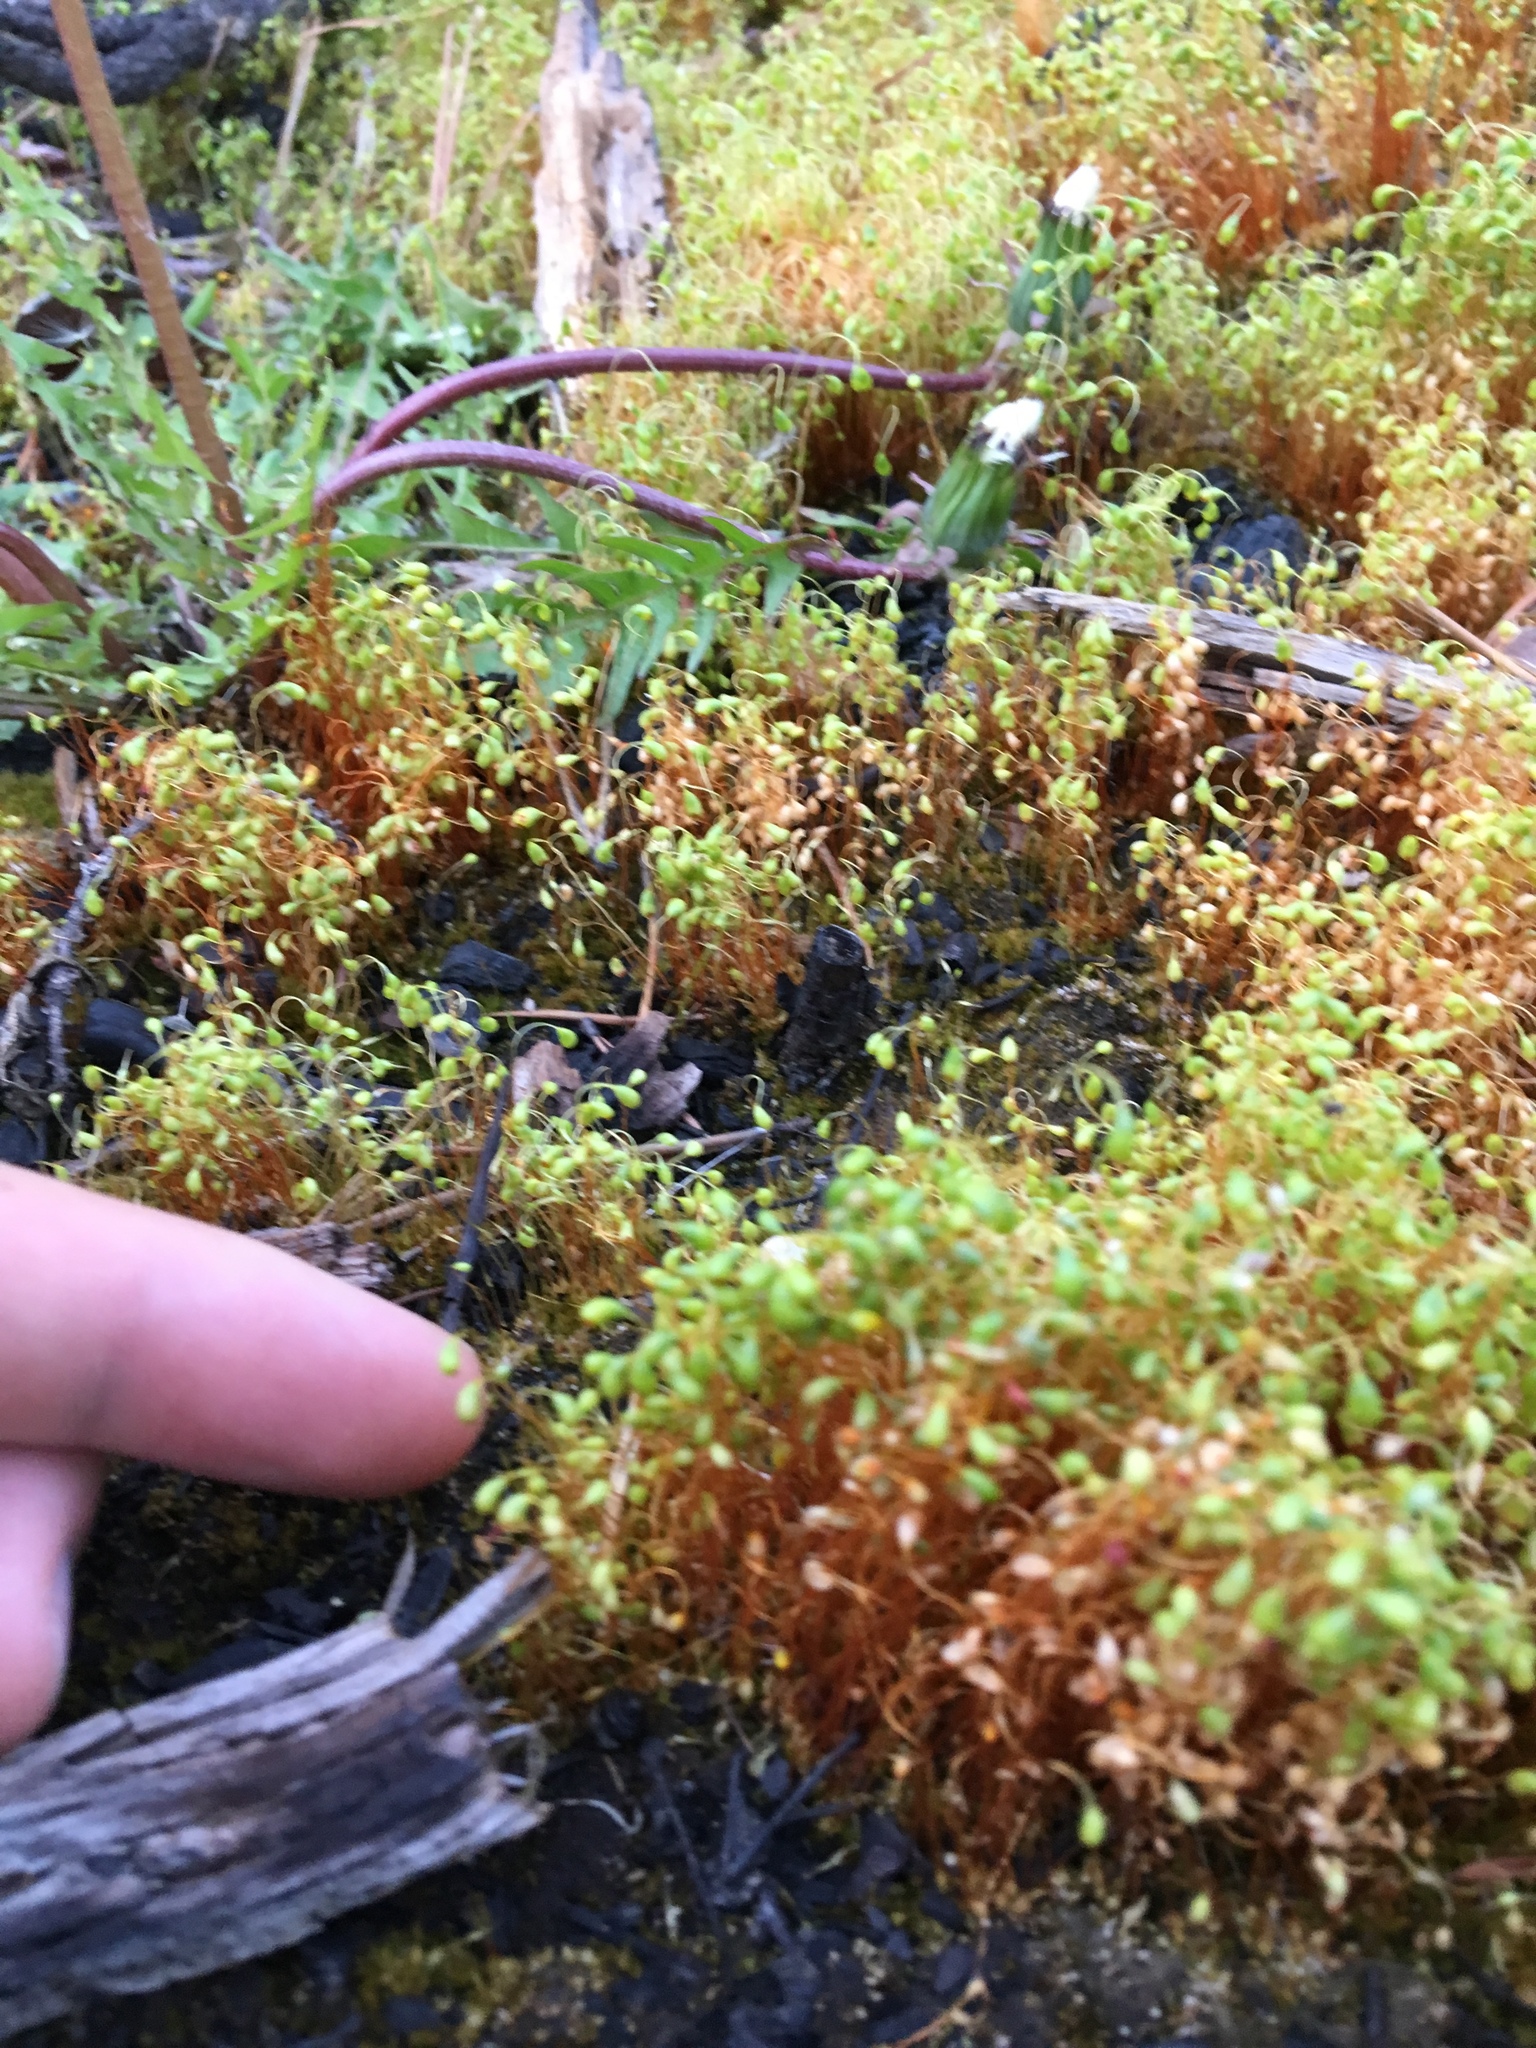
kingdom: Plantae
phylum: Bryophyta
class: Bryopsida
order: Funariales
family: Funariaceae
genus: Funaria
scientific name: Funaria hygrometrica
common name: Common cord moss
